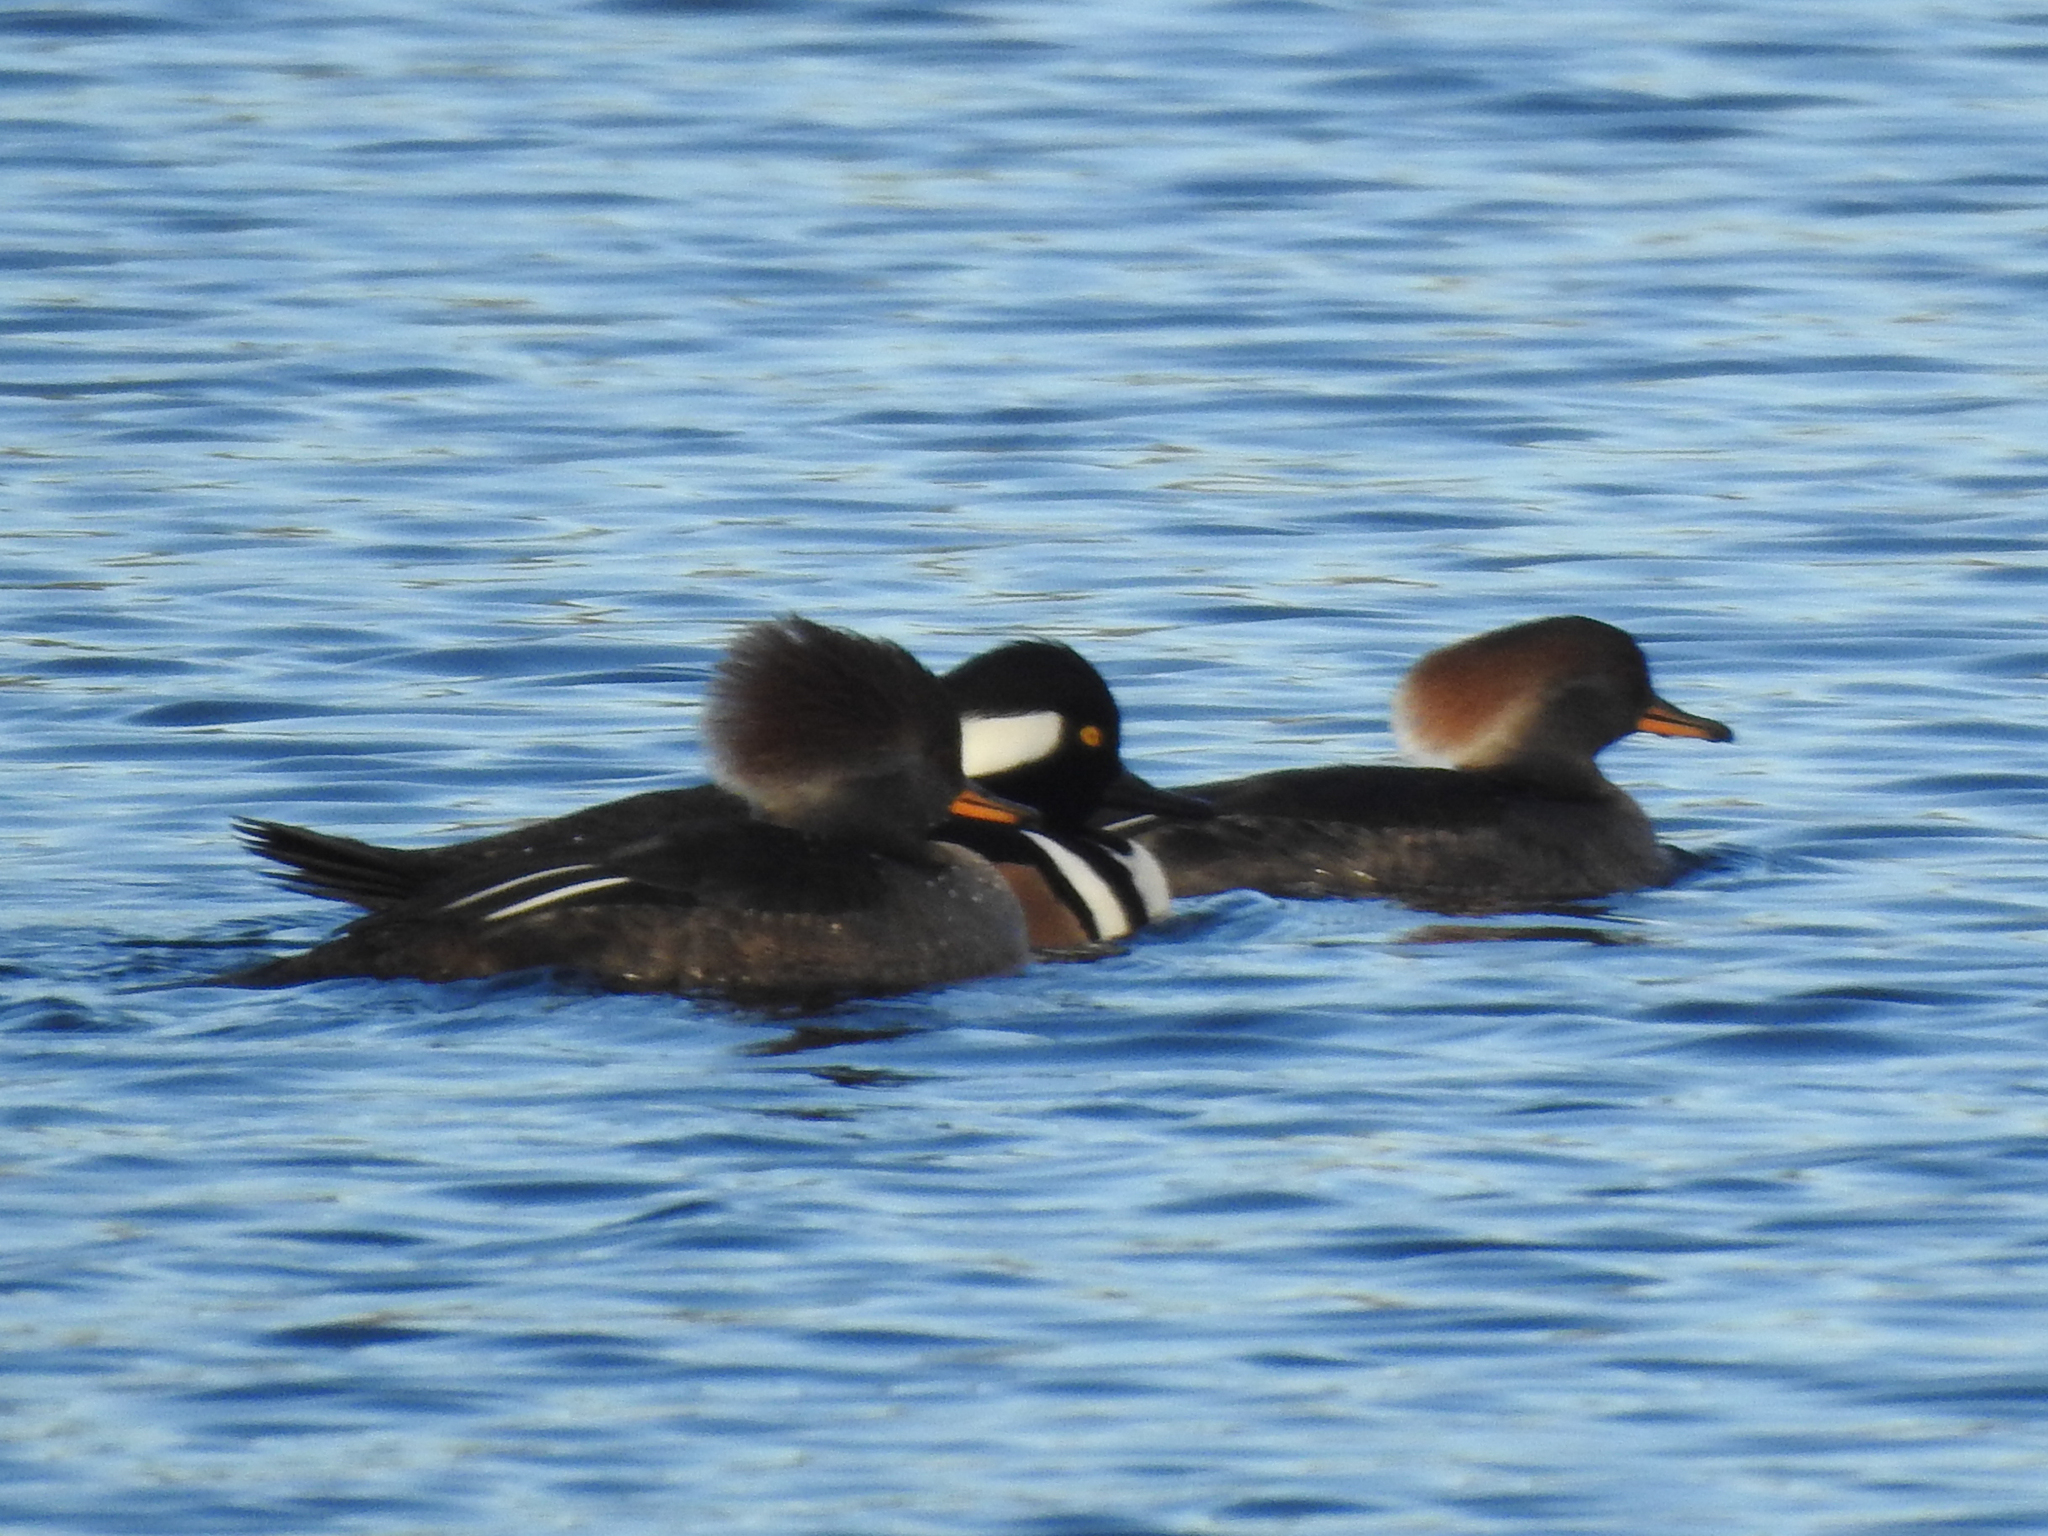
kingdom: Animalia
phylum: Chordata
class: Aves
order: Anseriformes
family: Anatidae
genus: Lophodytes
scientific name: Lophodytes cucullatus
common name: Hooded merganser
